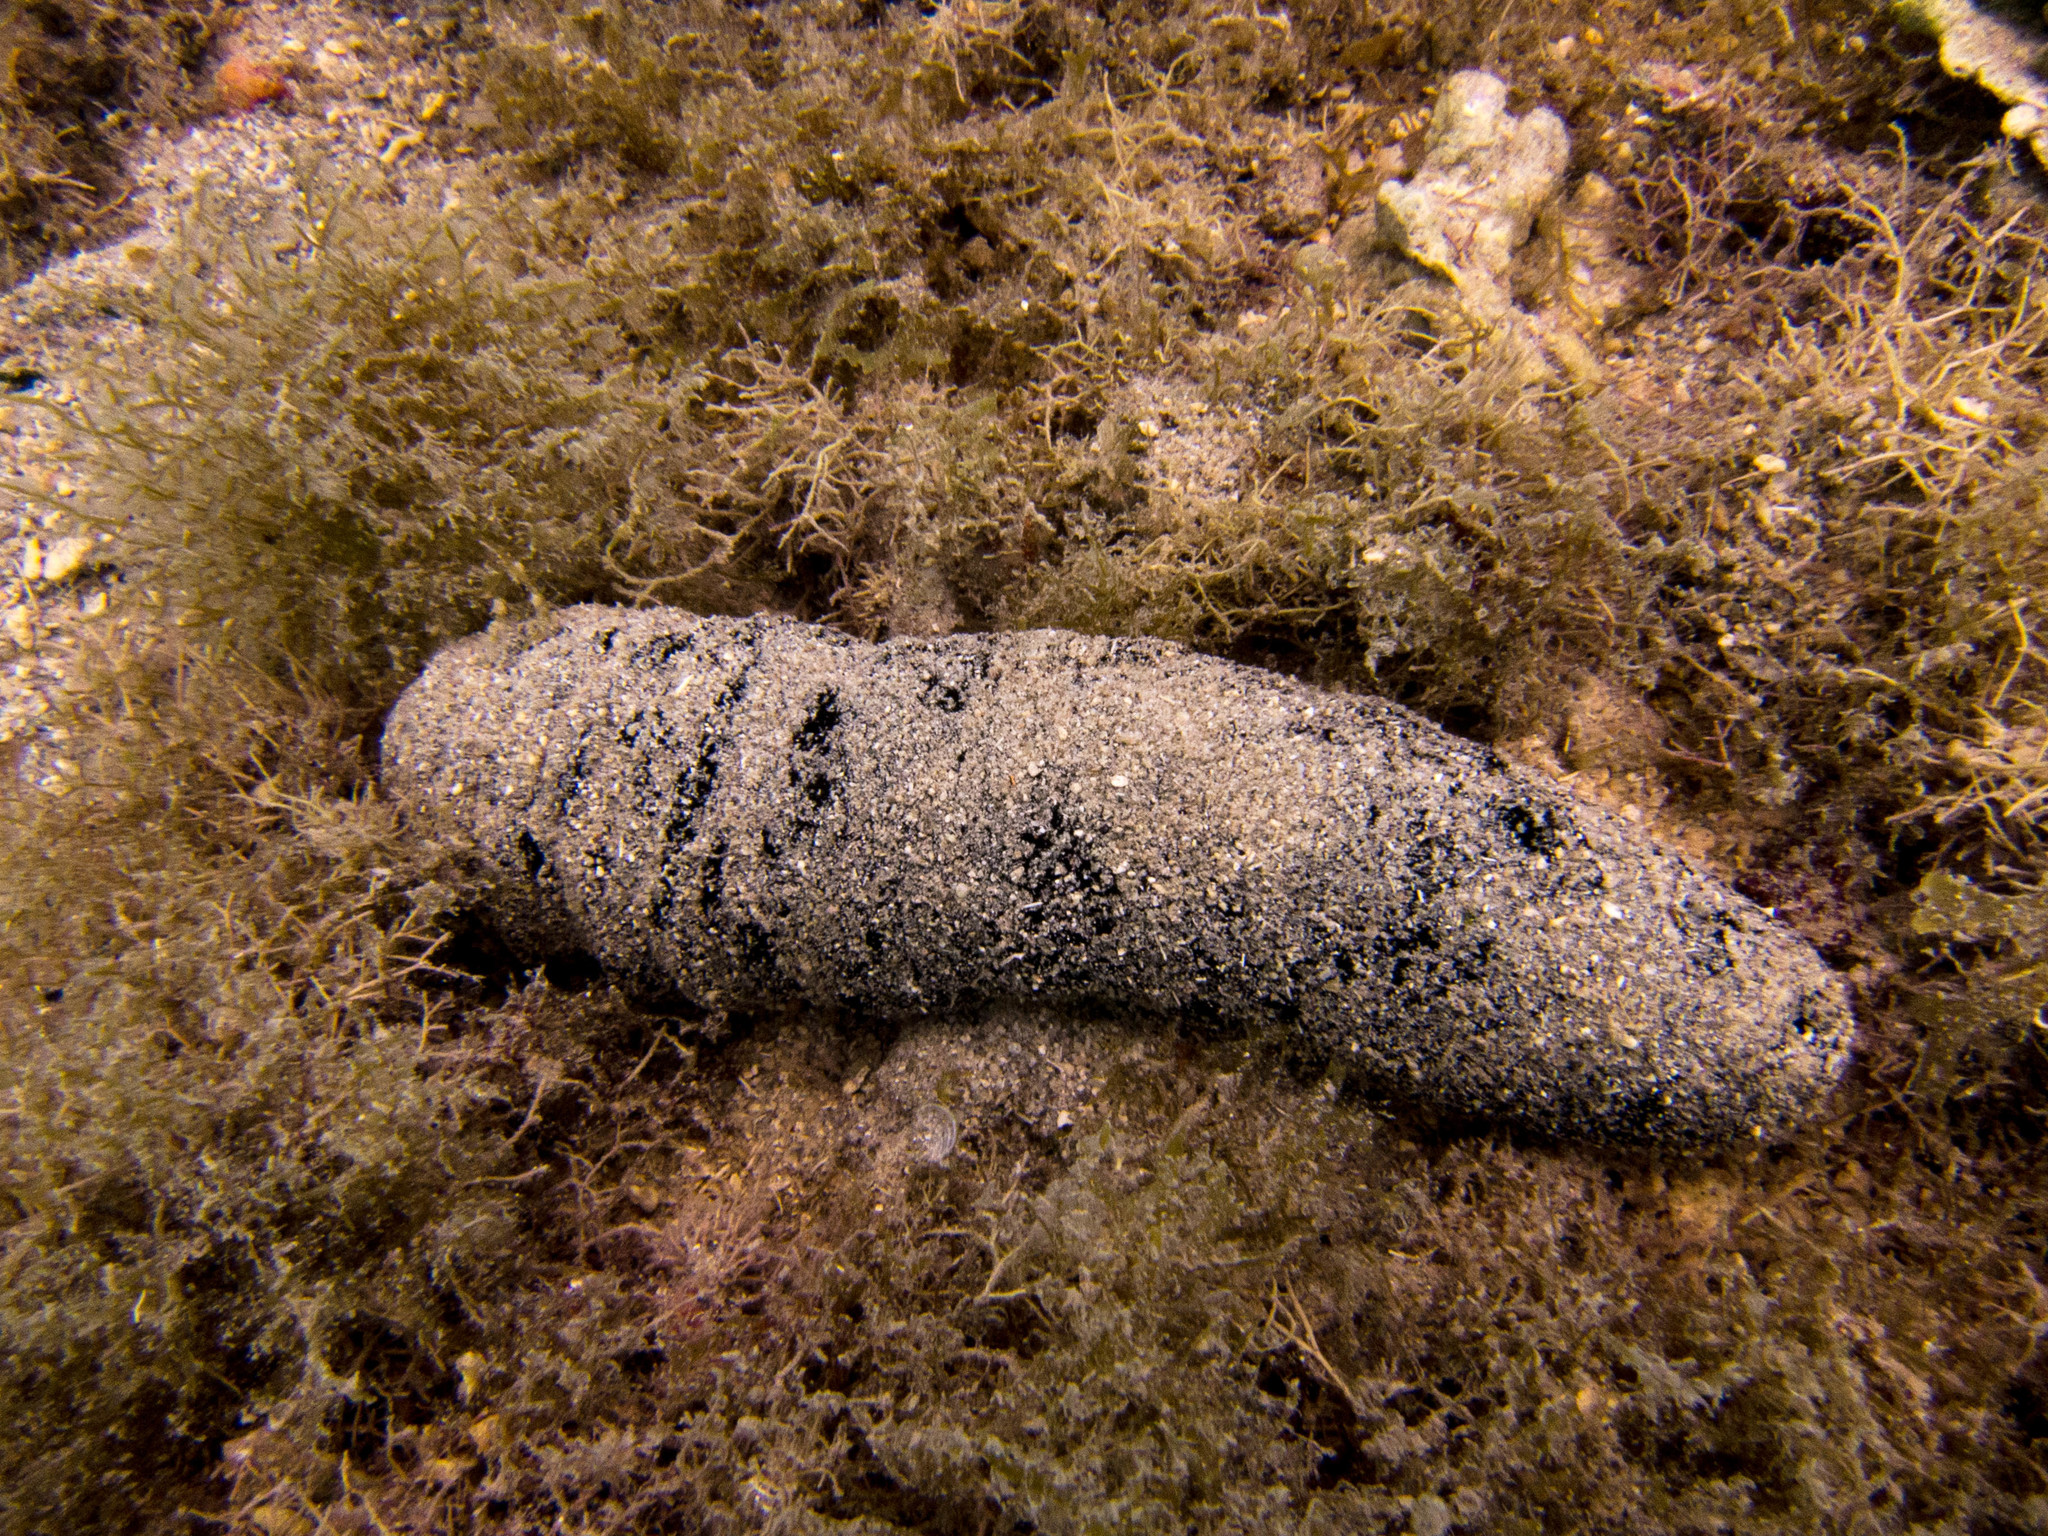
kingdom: Animalia
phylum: Echinodermata
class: Holothuroidea
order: Holothuriida
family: Holothuriidae
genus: Holothuria
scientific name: Holothuria atra
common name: Lollyfish
